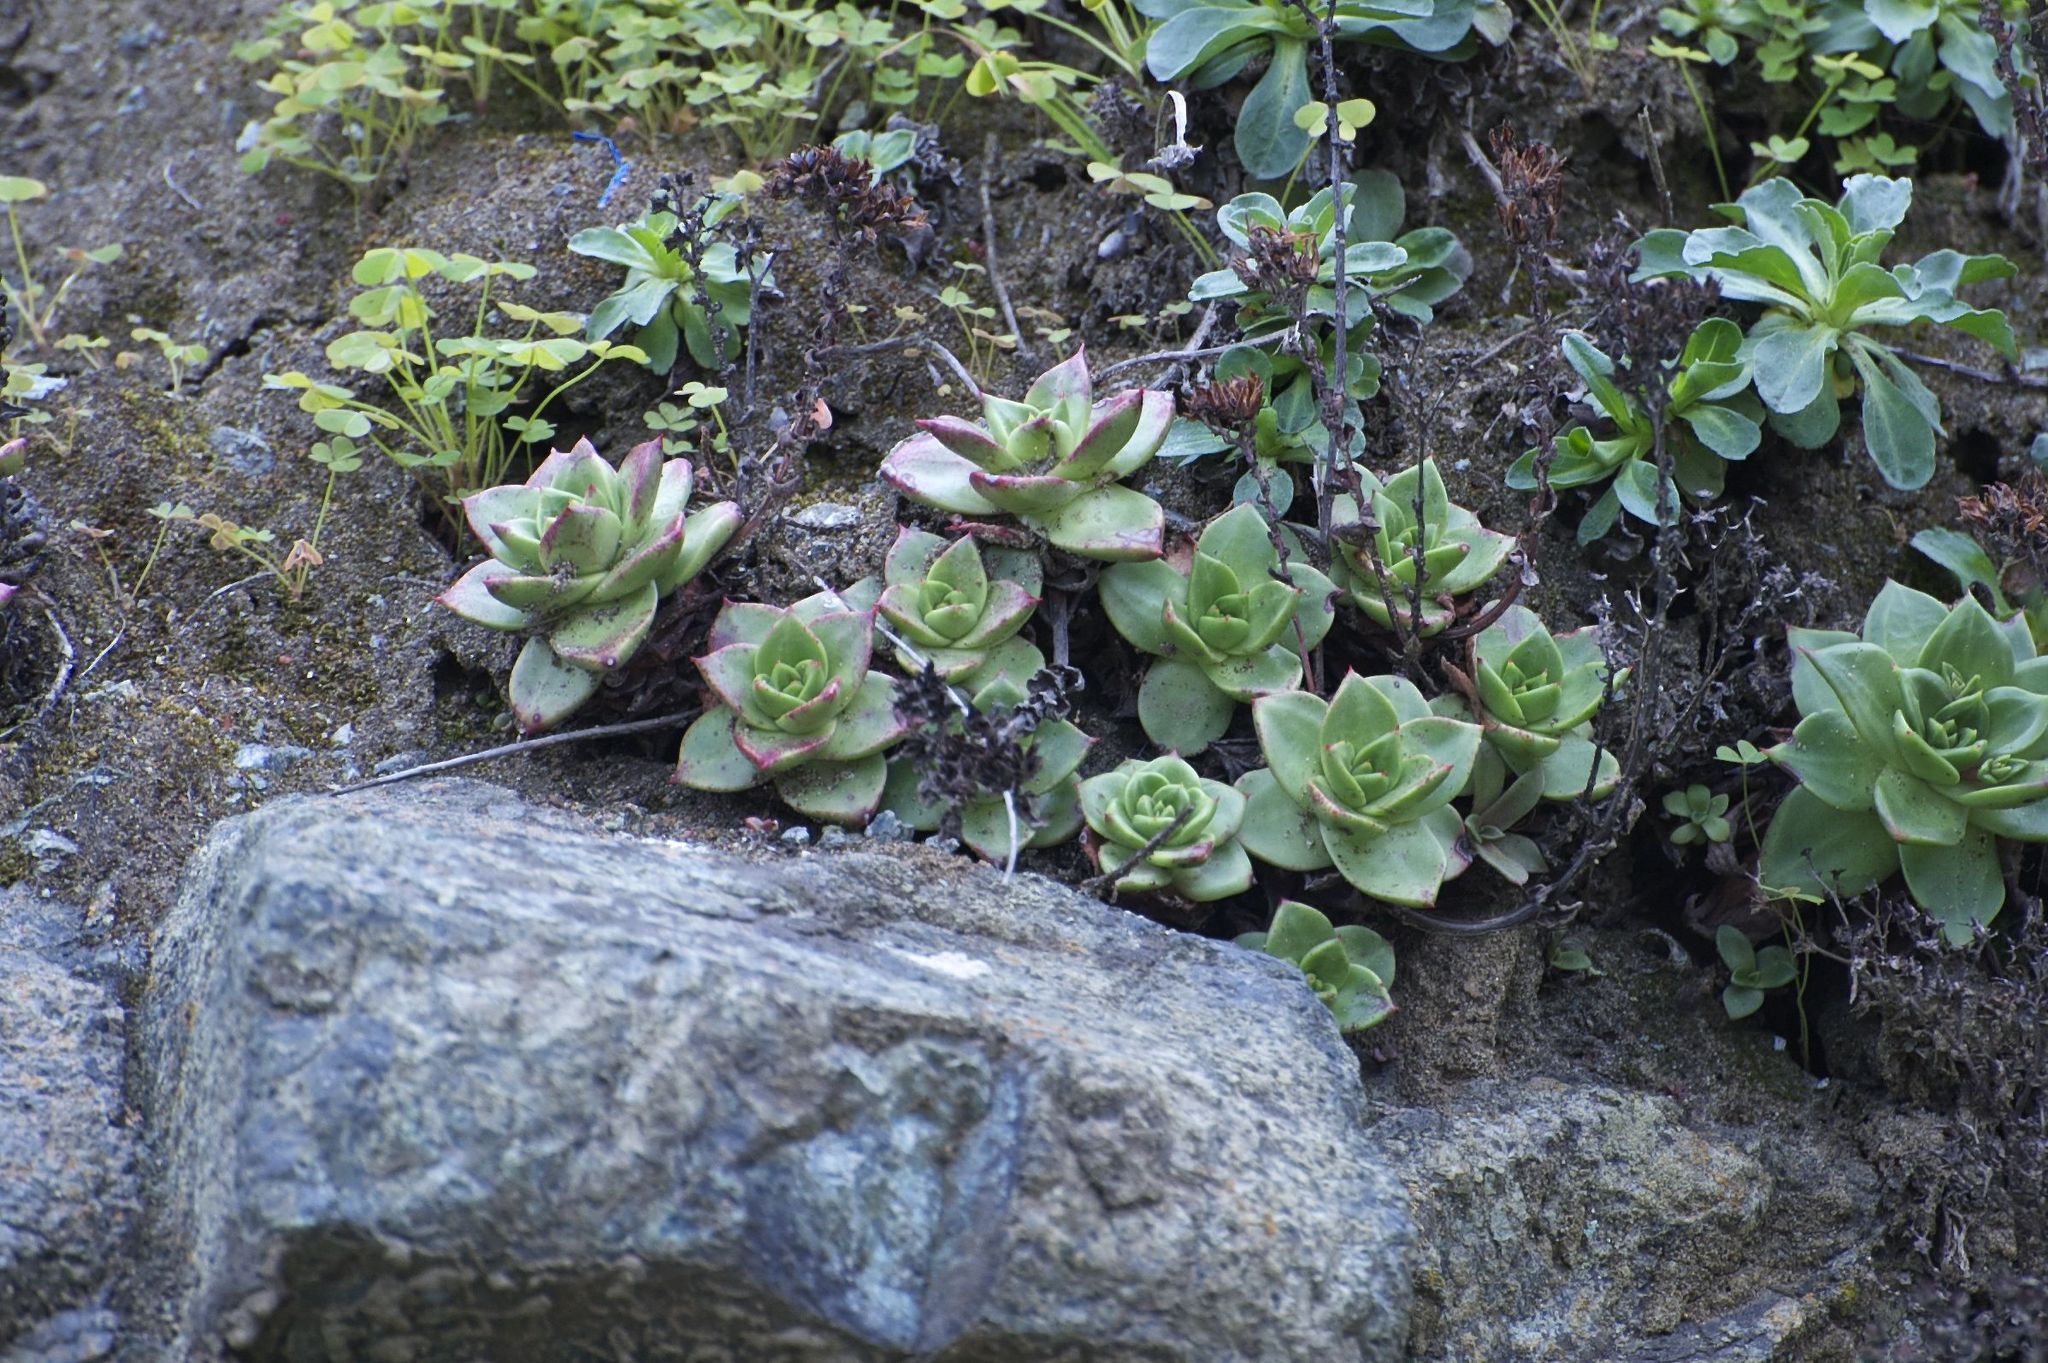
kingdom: Plantae
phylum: Tracheophyta
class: Magnoliopsida
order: Saxifragales
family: Crassulaceae
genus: Dudleya
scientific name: Dudleya farinosa
